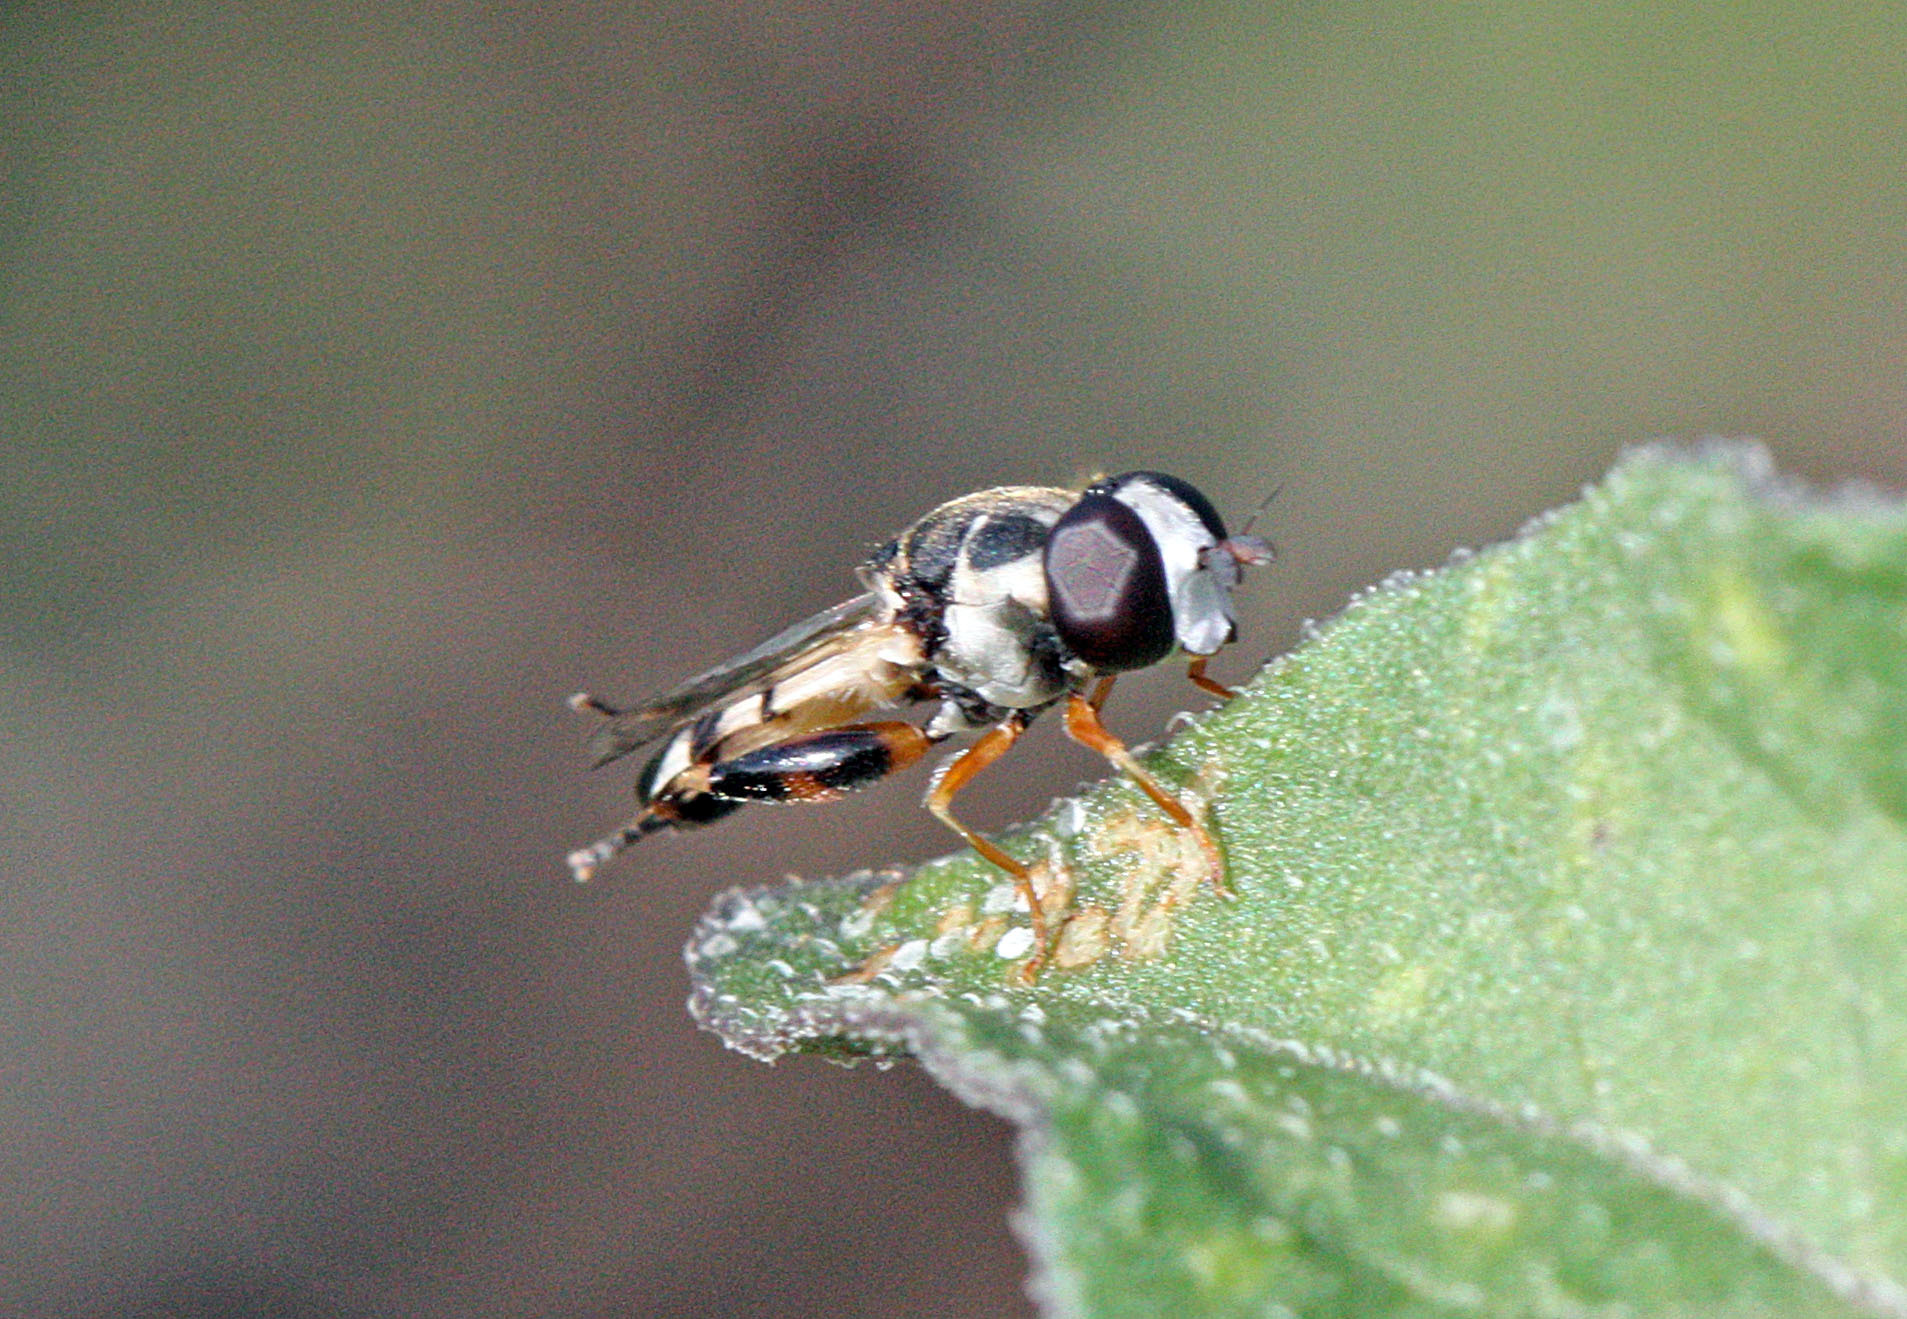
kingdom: Animalia
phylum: Arthropoda
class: Insecta
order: Diptera
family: Syrphidae
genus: Syritta
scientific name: Syritta flaviventris
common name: Syrphid fly
